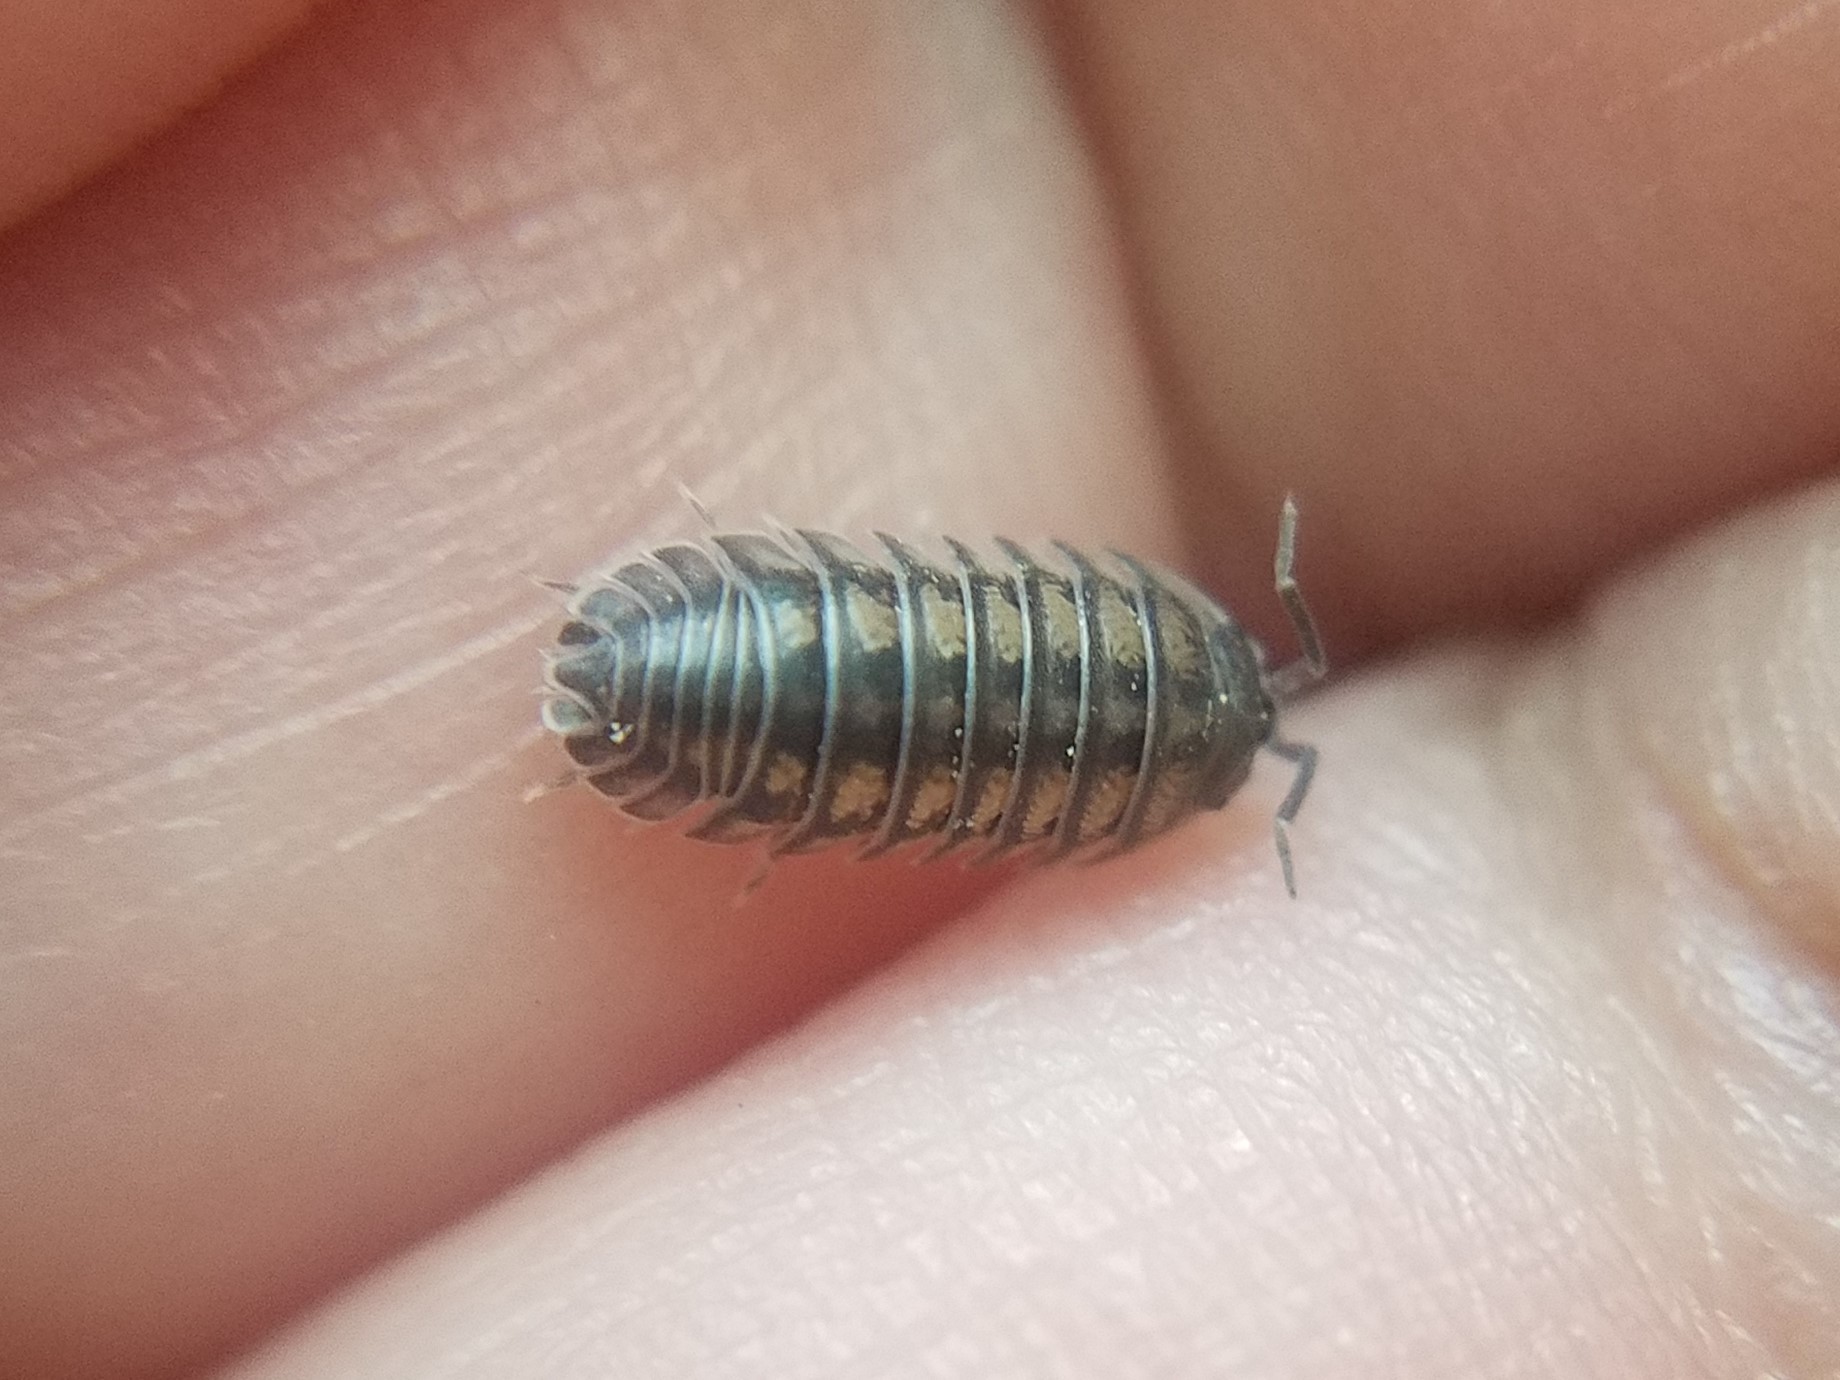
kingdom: Animalia
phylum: Arthropoda
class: Malacostraca
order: Isopoda
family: Armadillidiidae
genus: Armadillidium
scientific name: Armadillidium nasatum
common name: Isopod
